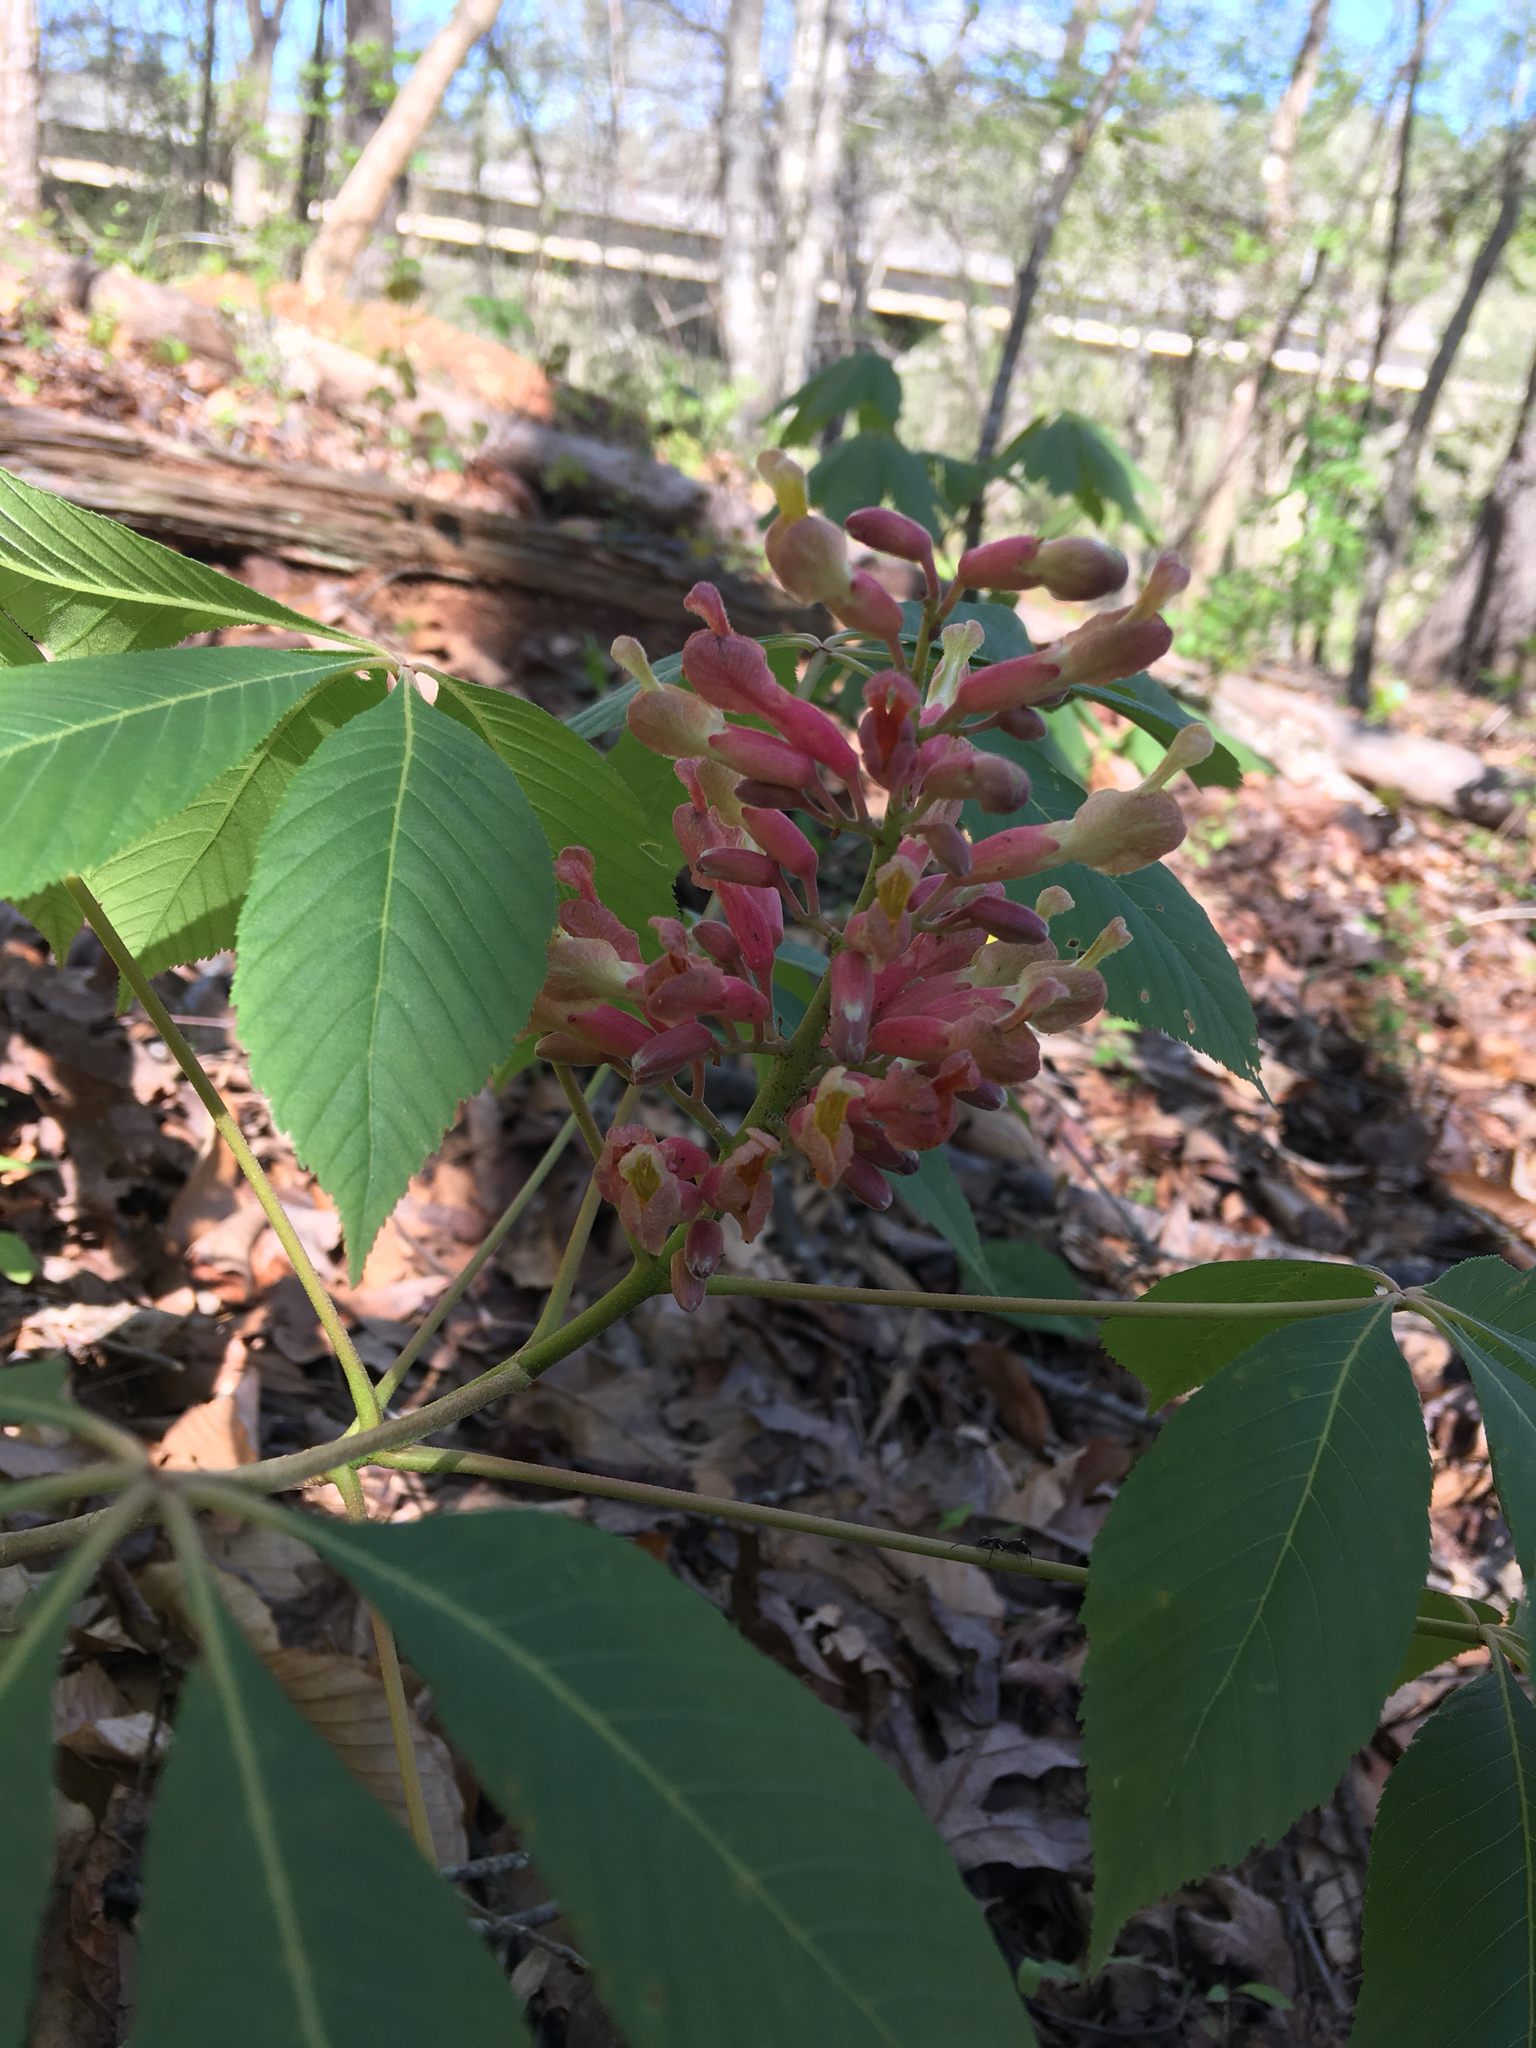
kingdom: Plantae
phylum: Tracheophyta
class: Magnoliopsida
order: Sapindales
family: Sapindaceae
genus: Aesculus
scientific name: Aesculus sylvatica
